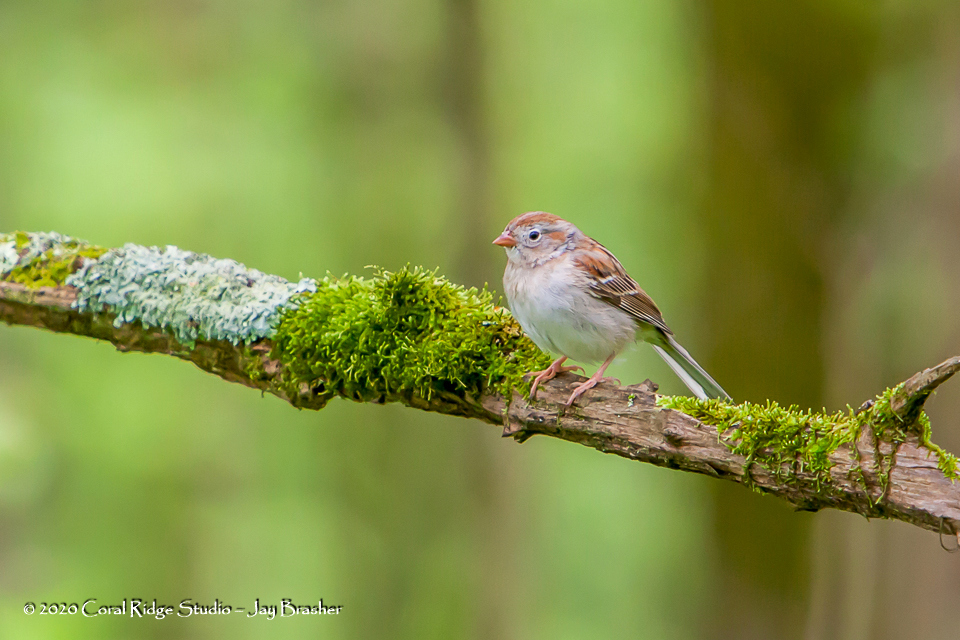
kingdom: Animalia
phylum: Chordata
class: Aves
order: Passeriformes
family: Passerellidae
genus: Spizella
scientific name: Spizella pusilla
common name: Field sparrow
